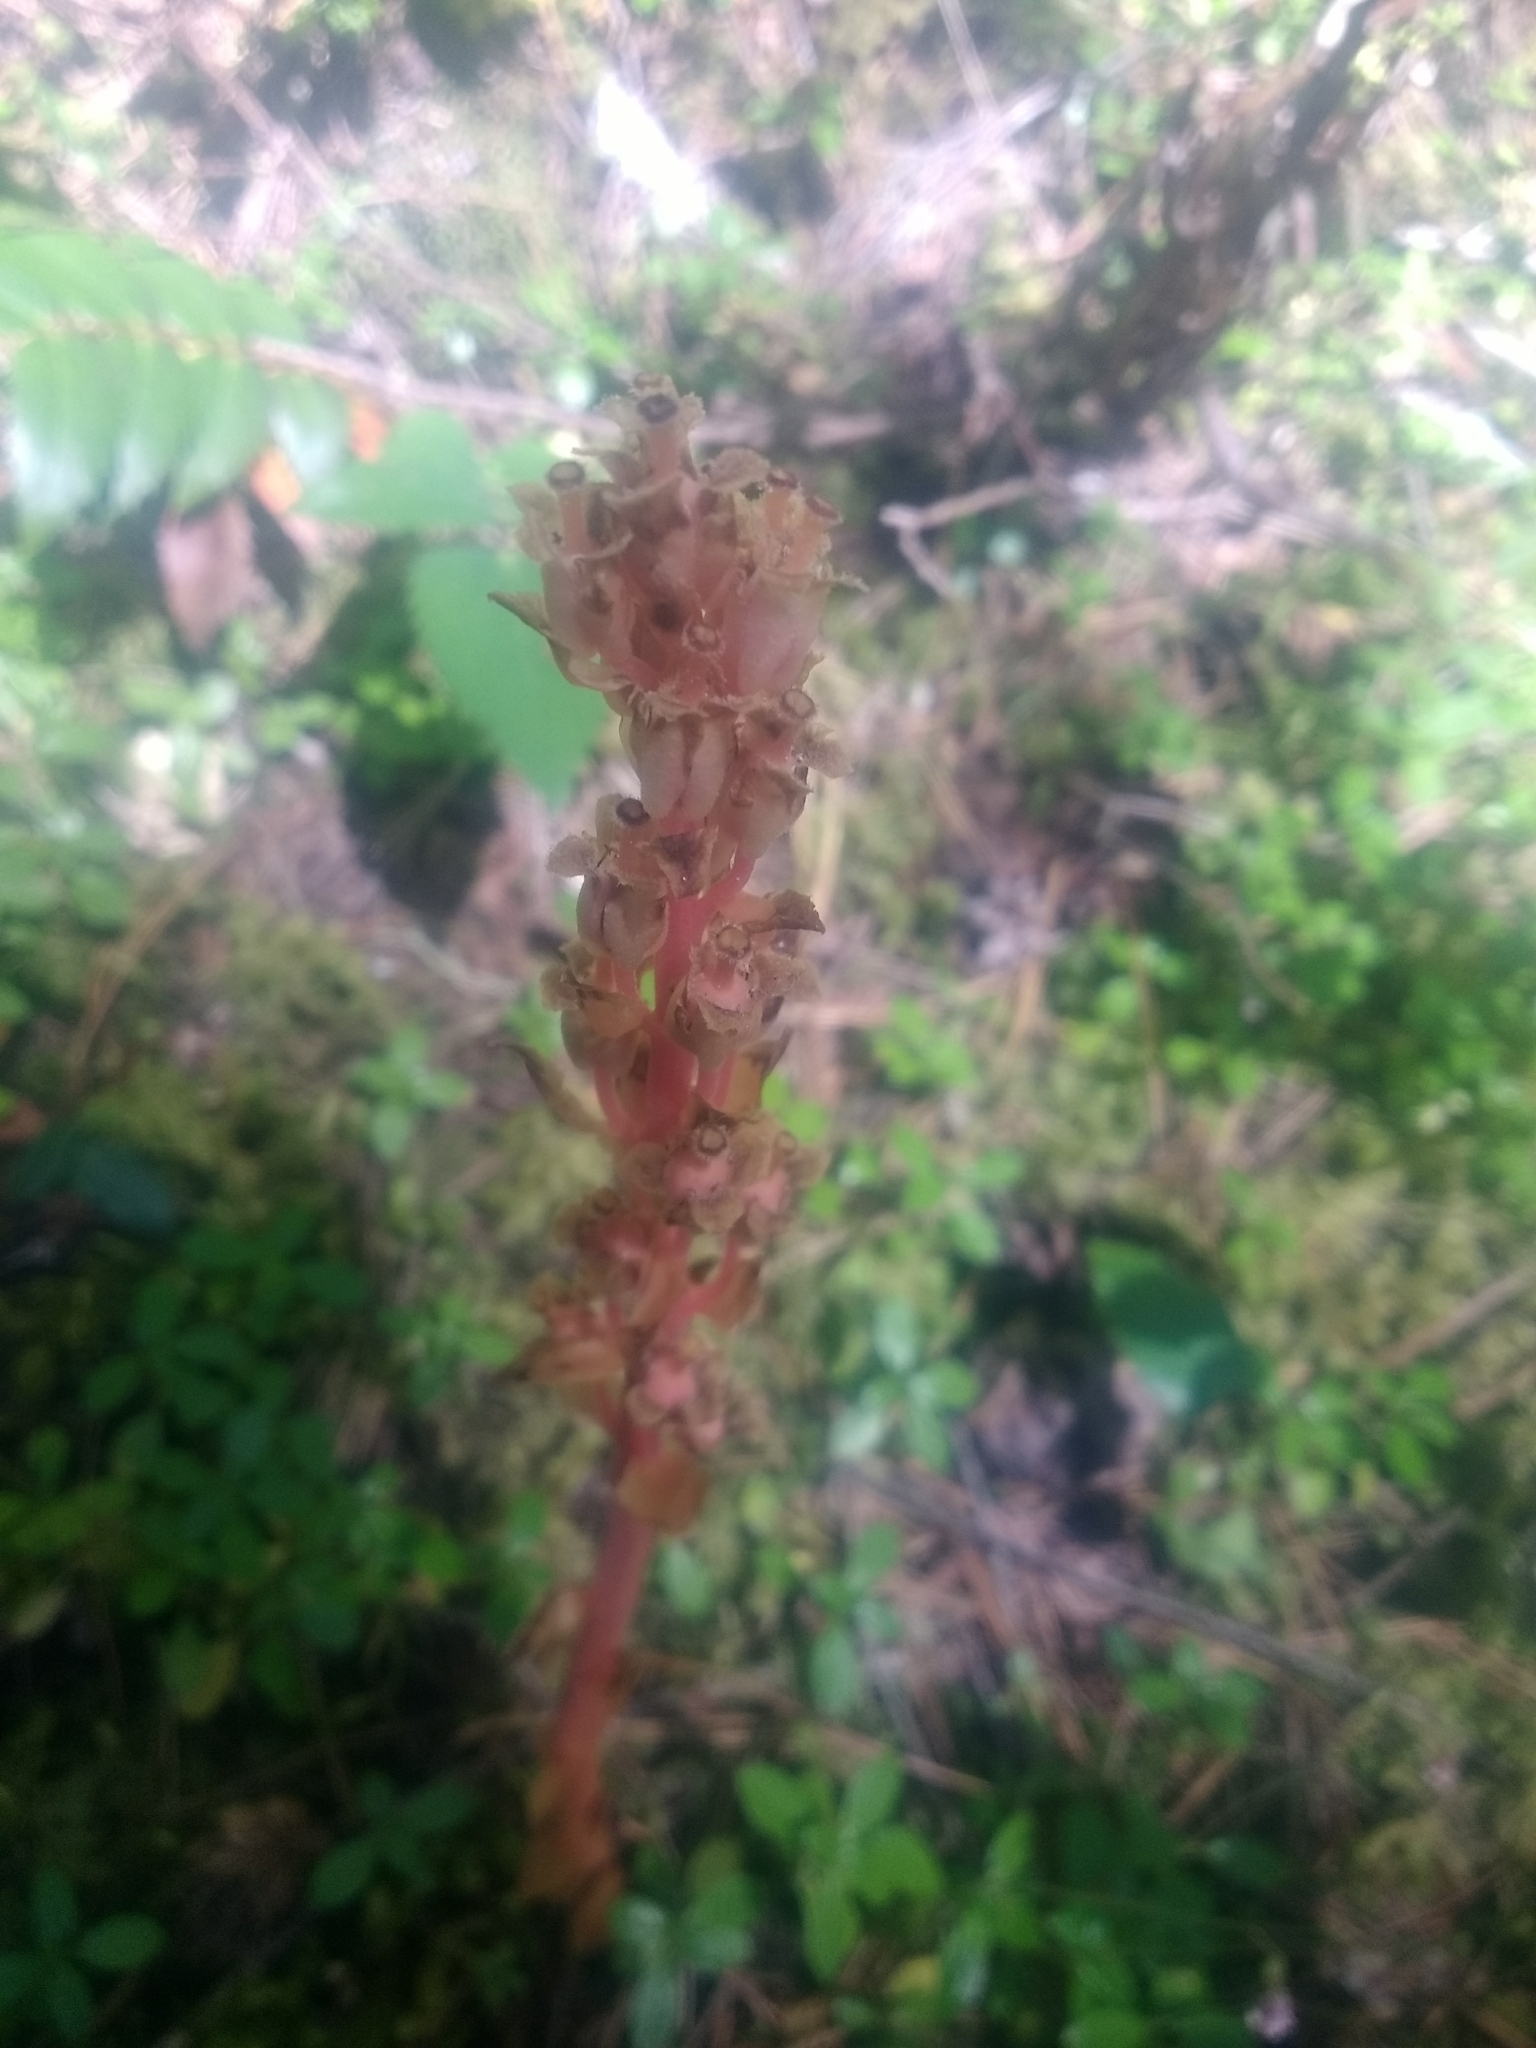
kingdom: Plantae
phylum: Tracheophyta
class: Magnoliopsida
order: Ericales
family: Ericaceae
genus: Hypopitys
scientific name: Hypopitys monotropa
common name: Yellow bird's-nest
